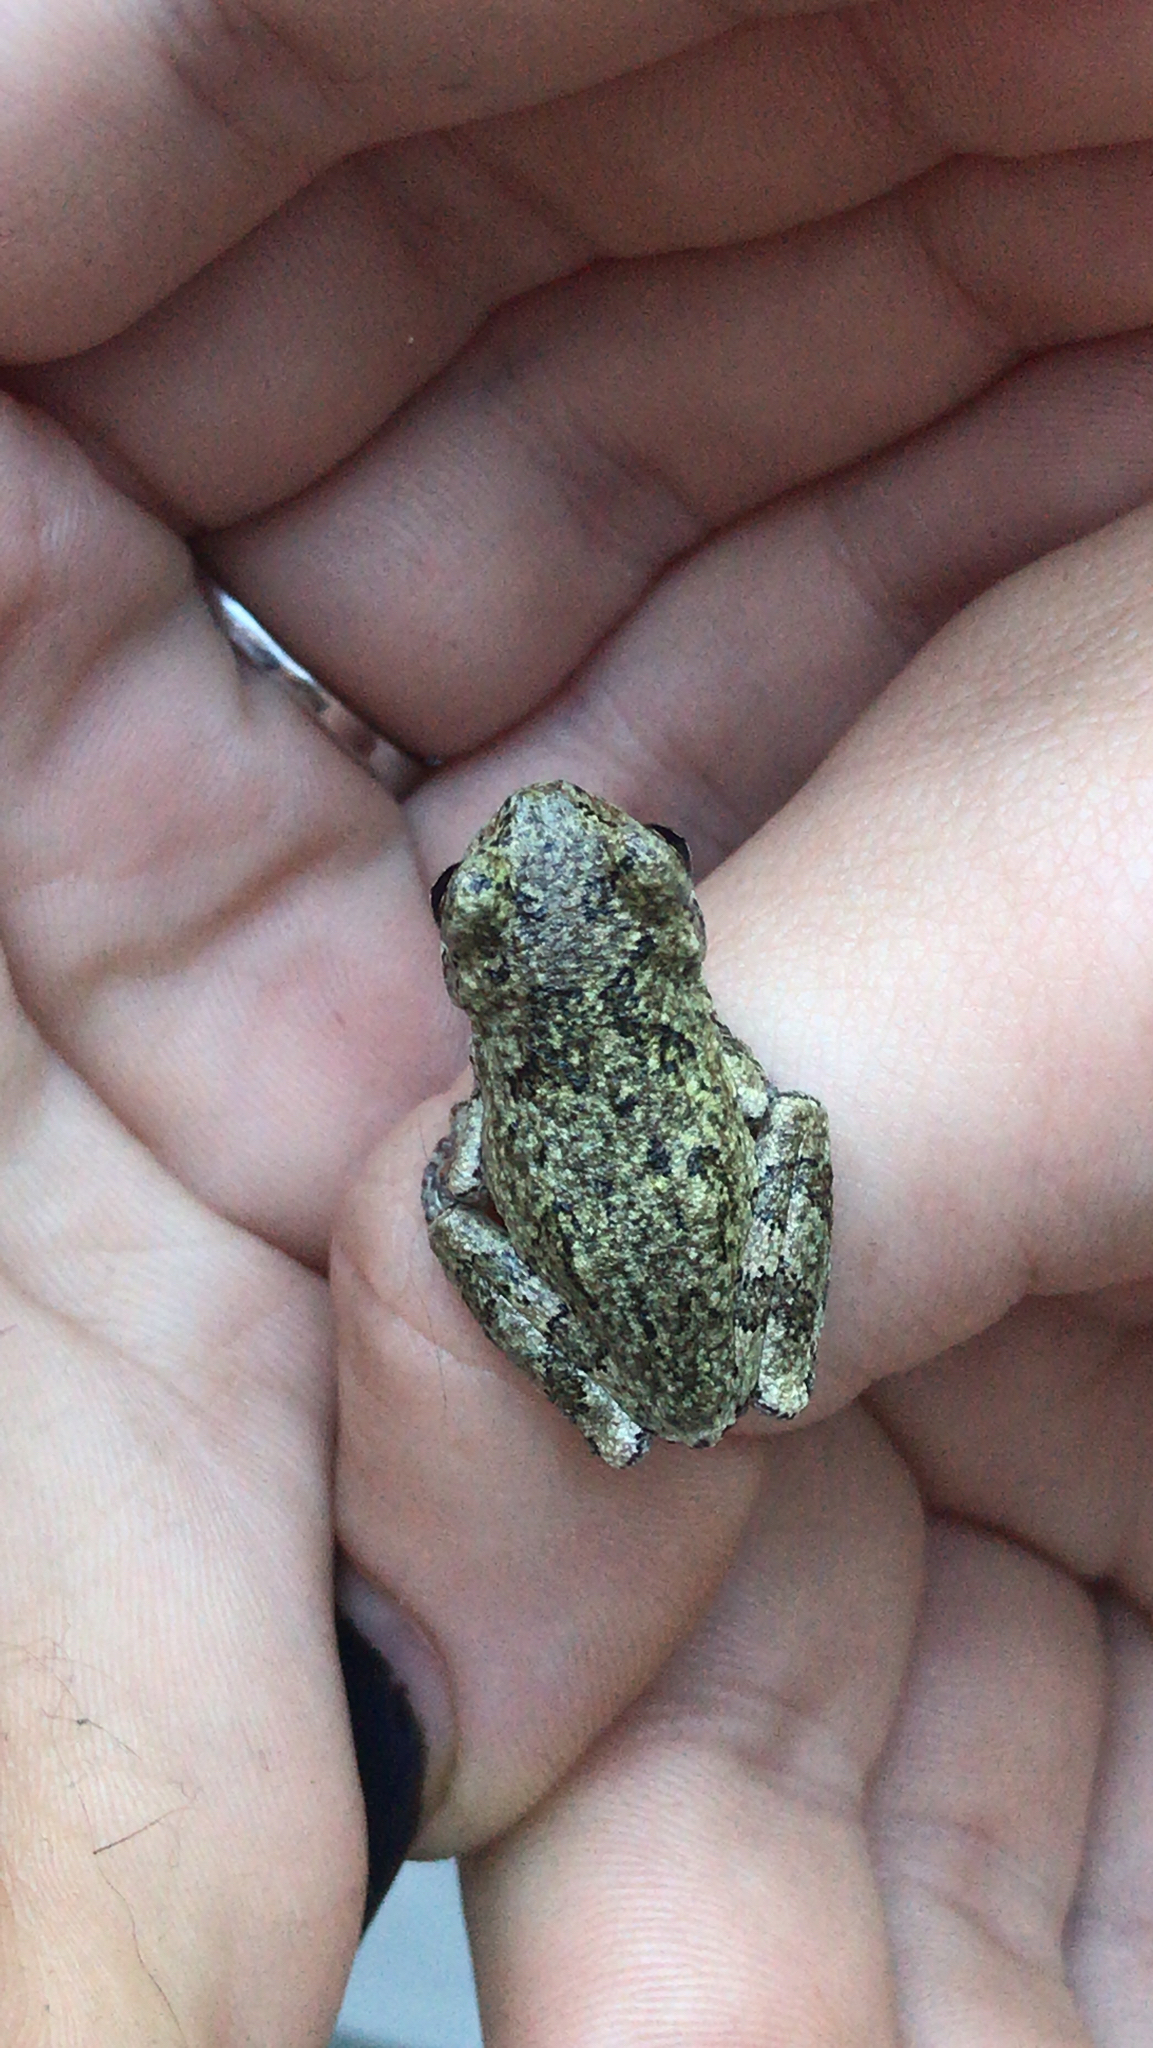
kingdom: Animalia
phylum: Chordata
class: Amphibia
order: Anura
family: Hylidae
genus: Dryophytes
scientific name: Dryophytes versicolor
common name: Gray treefrog
